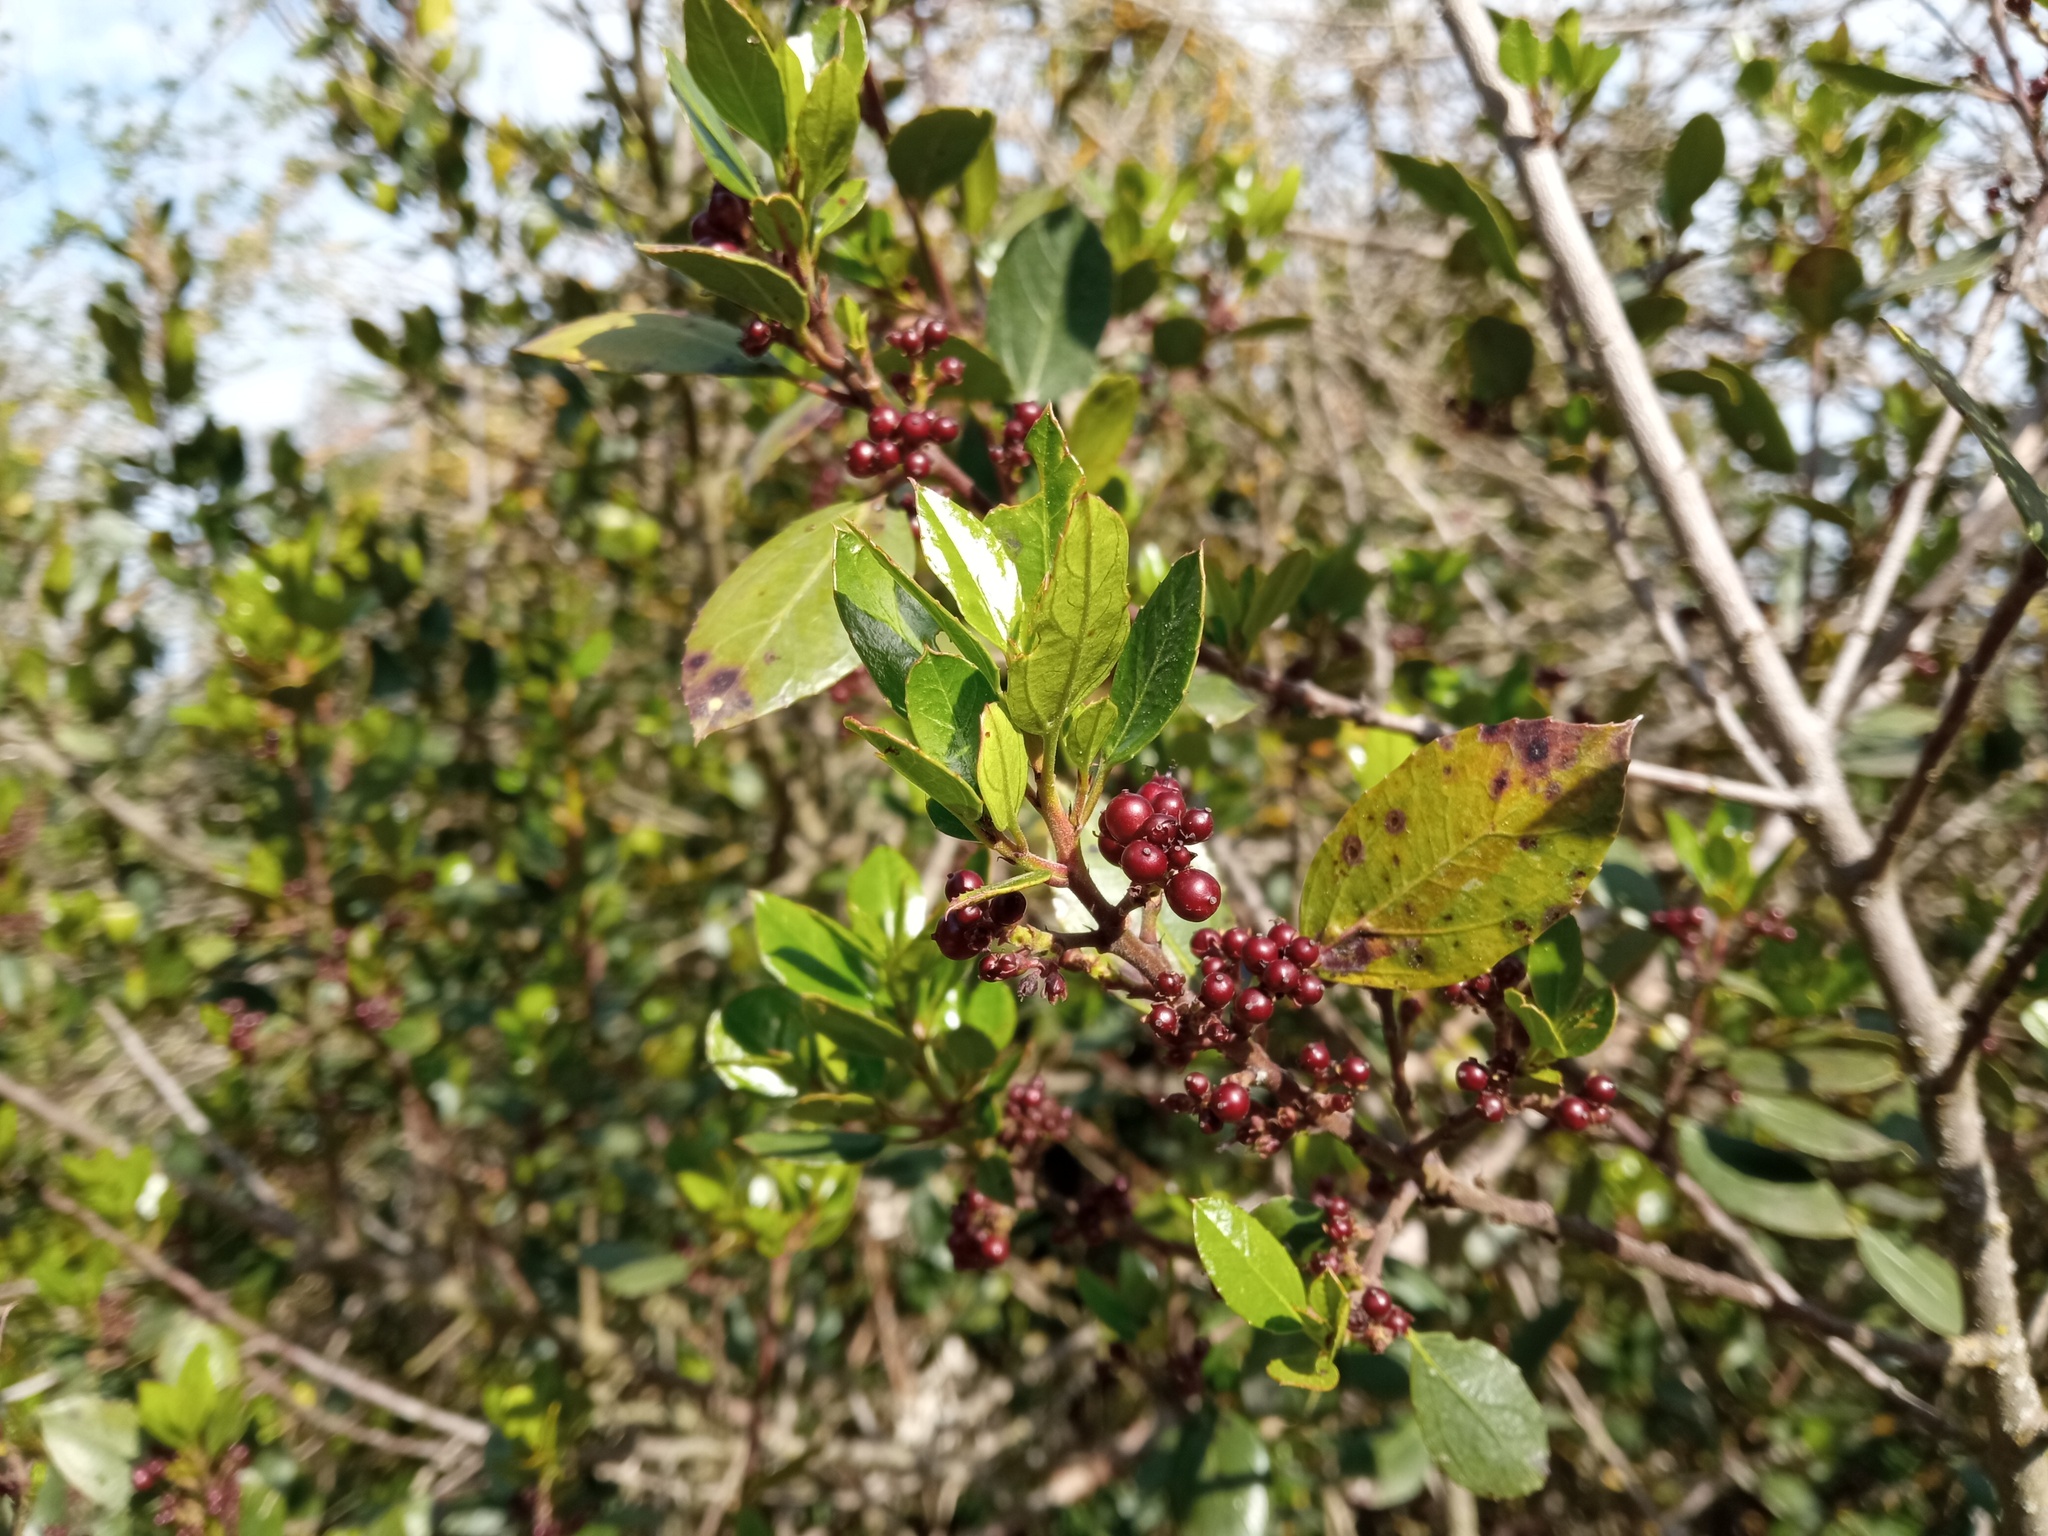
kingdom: Plantae
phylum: Tracheophyta
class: Magnoliopsida
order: Rosales
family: Rhamnaceae
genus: Rhamnus
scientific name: Rhamnus alaternus
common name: Mediterranean buckthorn
